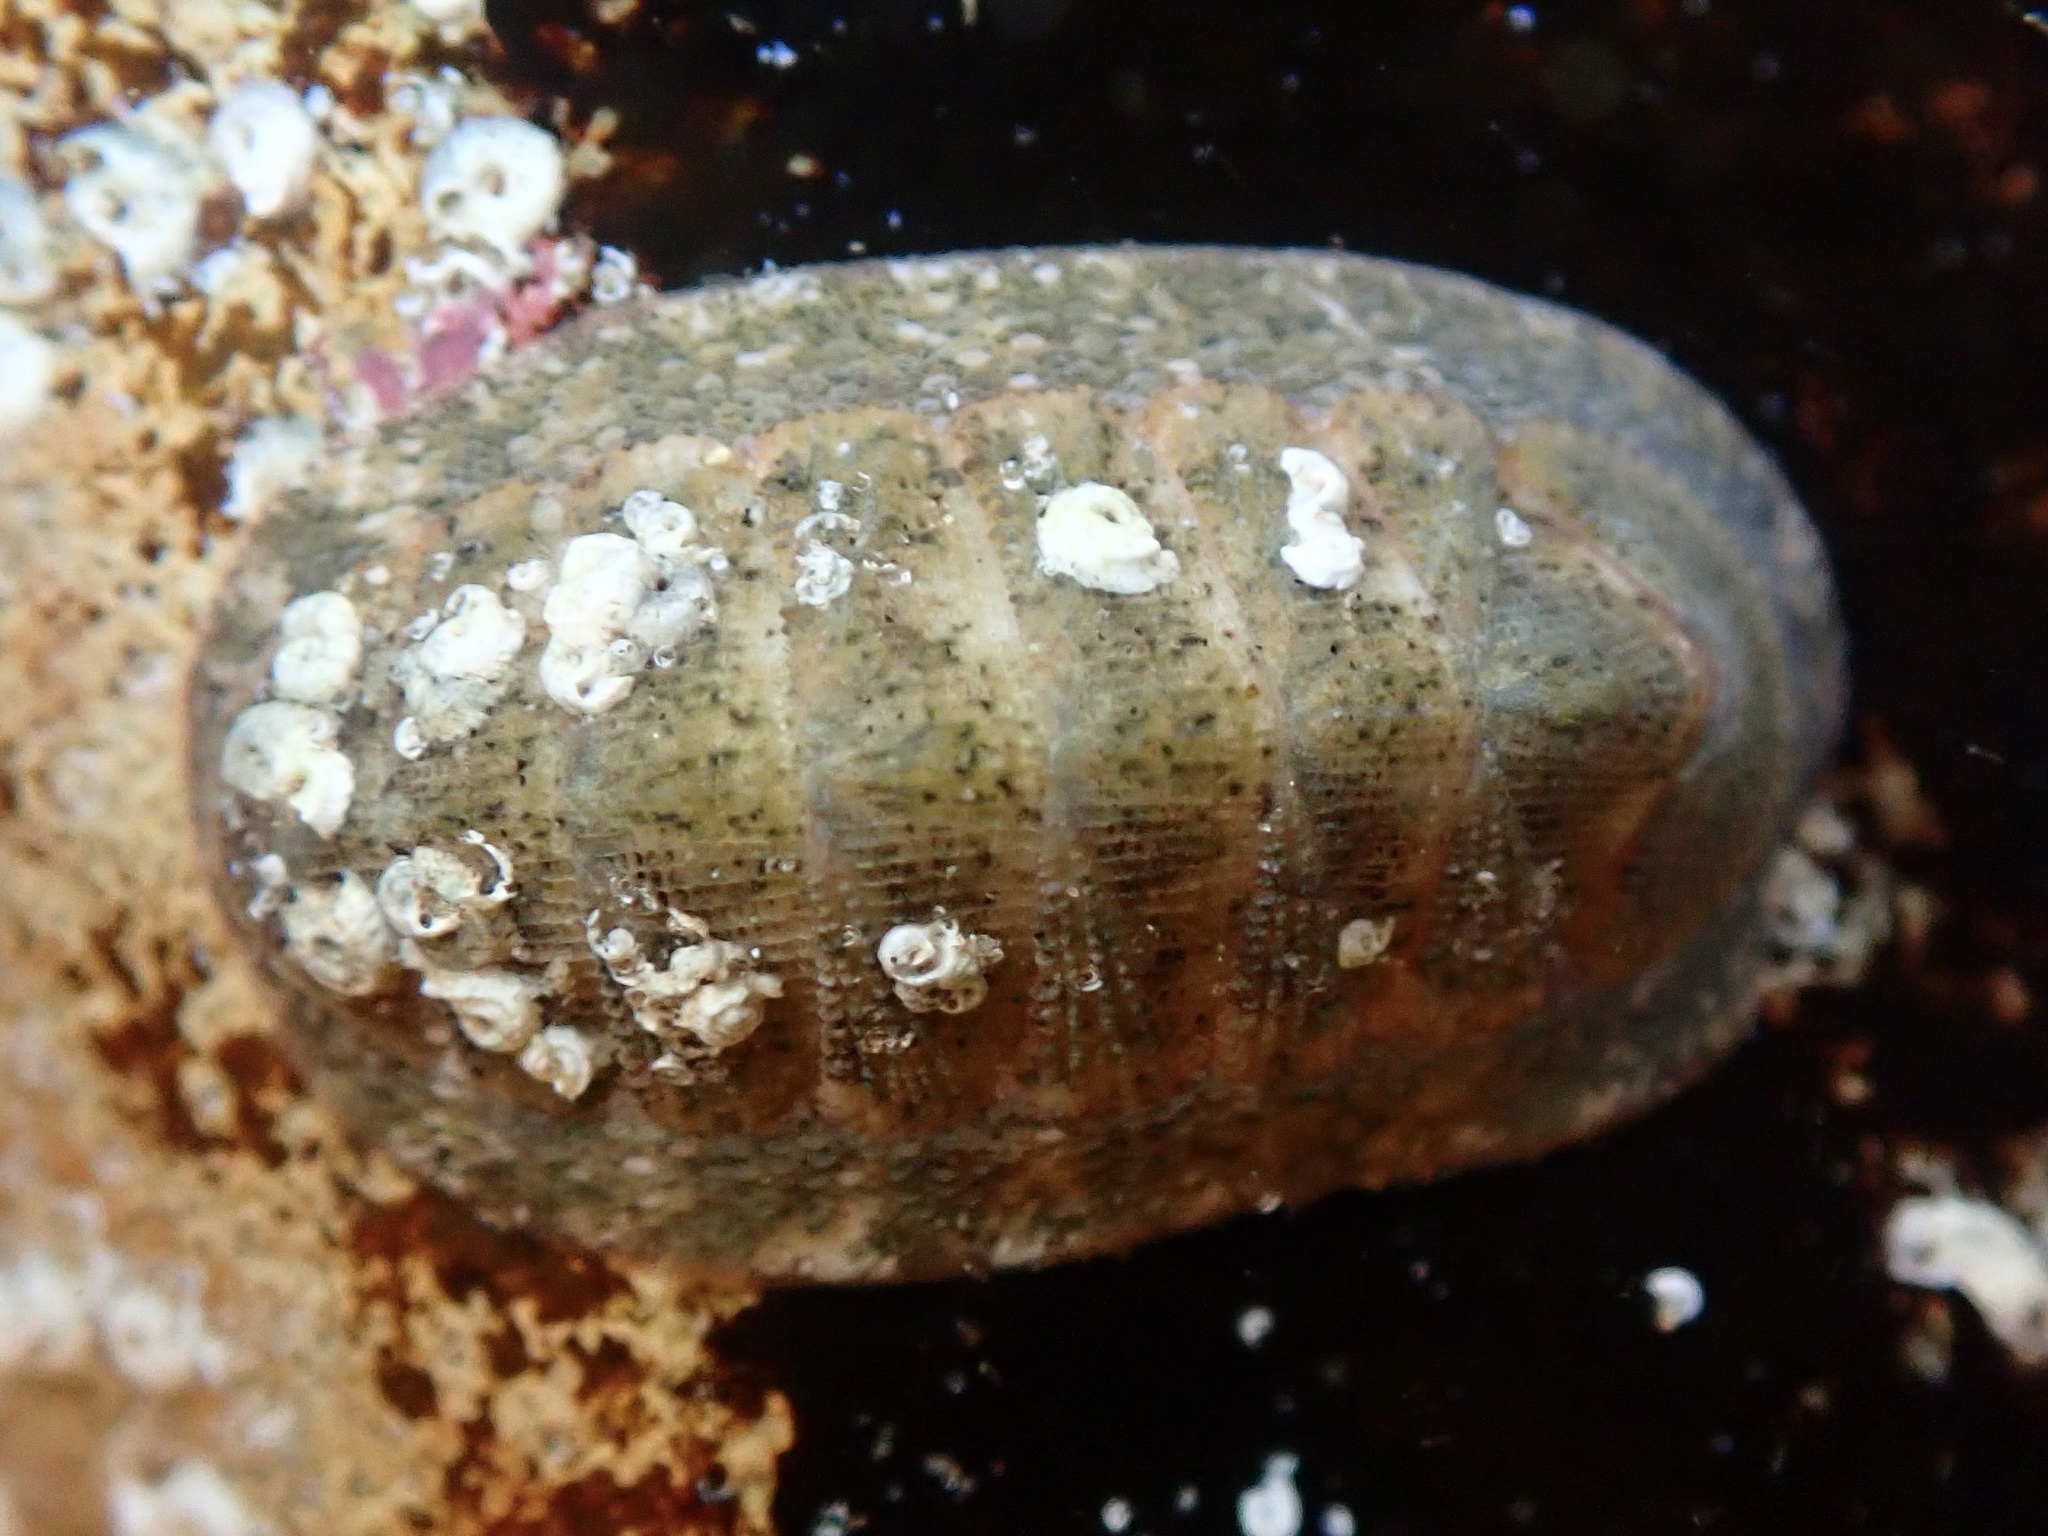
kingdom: Animalia
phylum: Mollusca
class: Polyplacophora
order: Chitonida
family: Ischnochitonidae
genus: Lepidozona
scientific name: Lepidozona pectinulata
